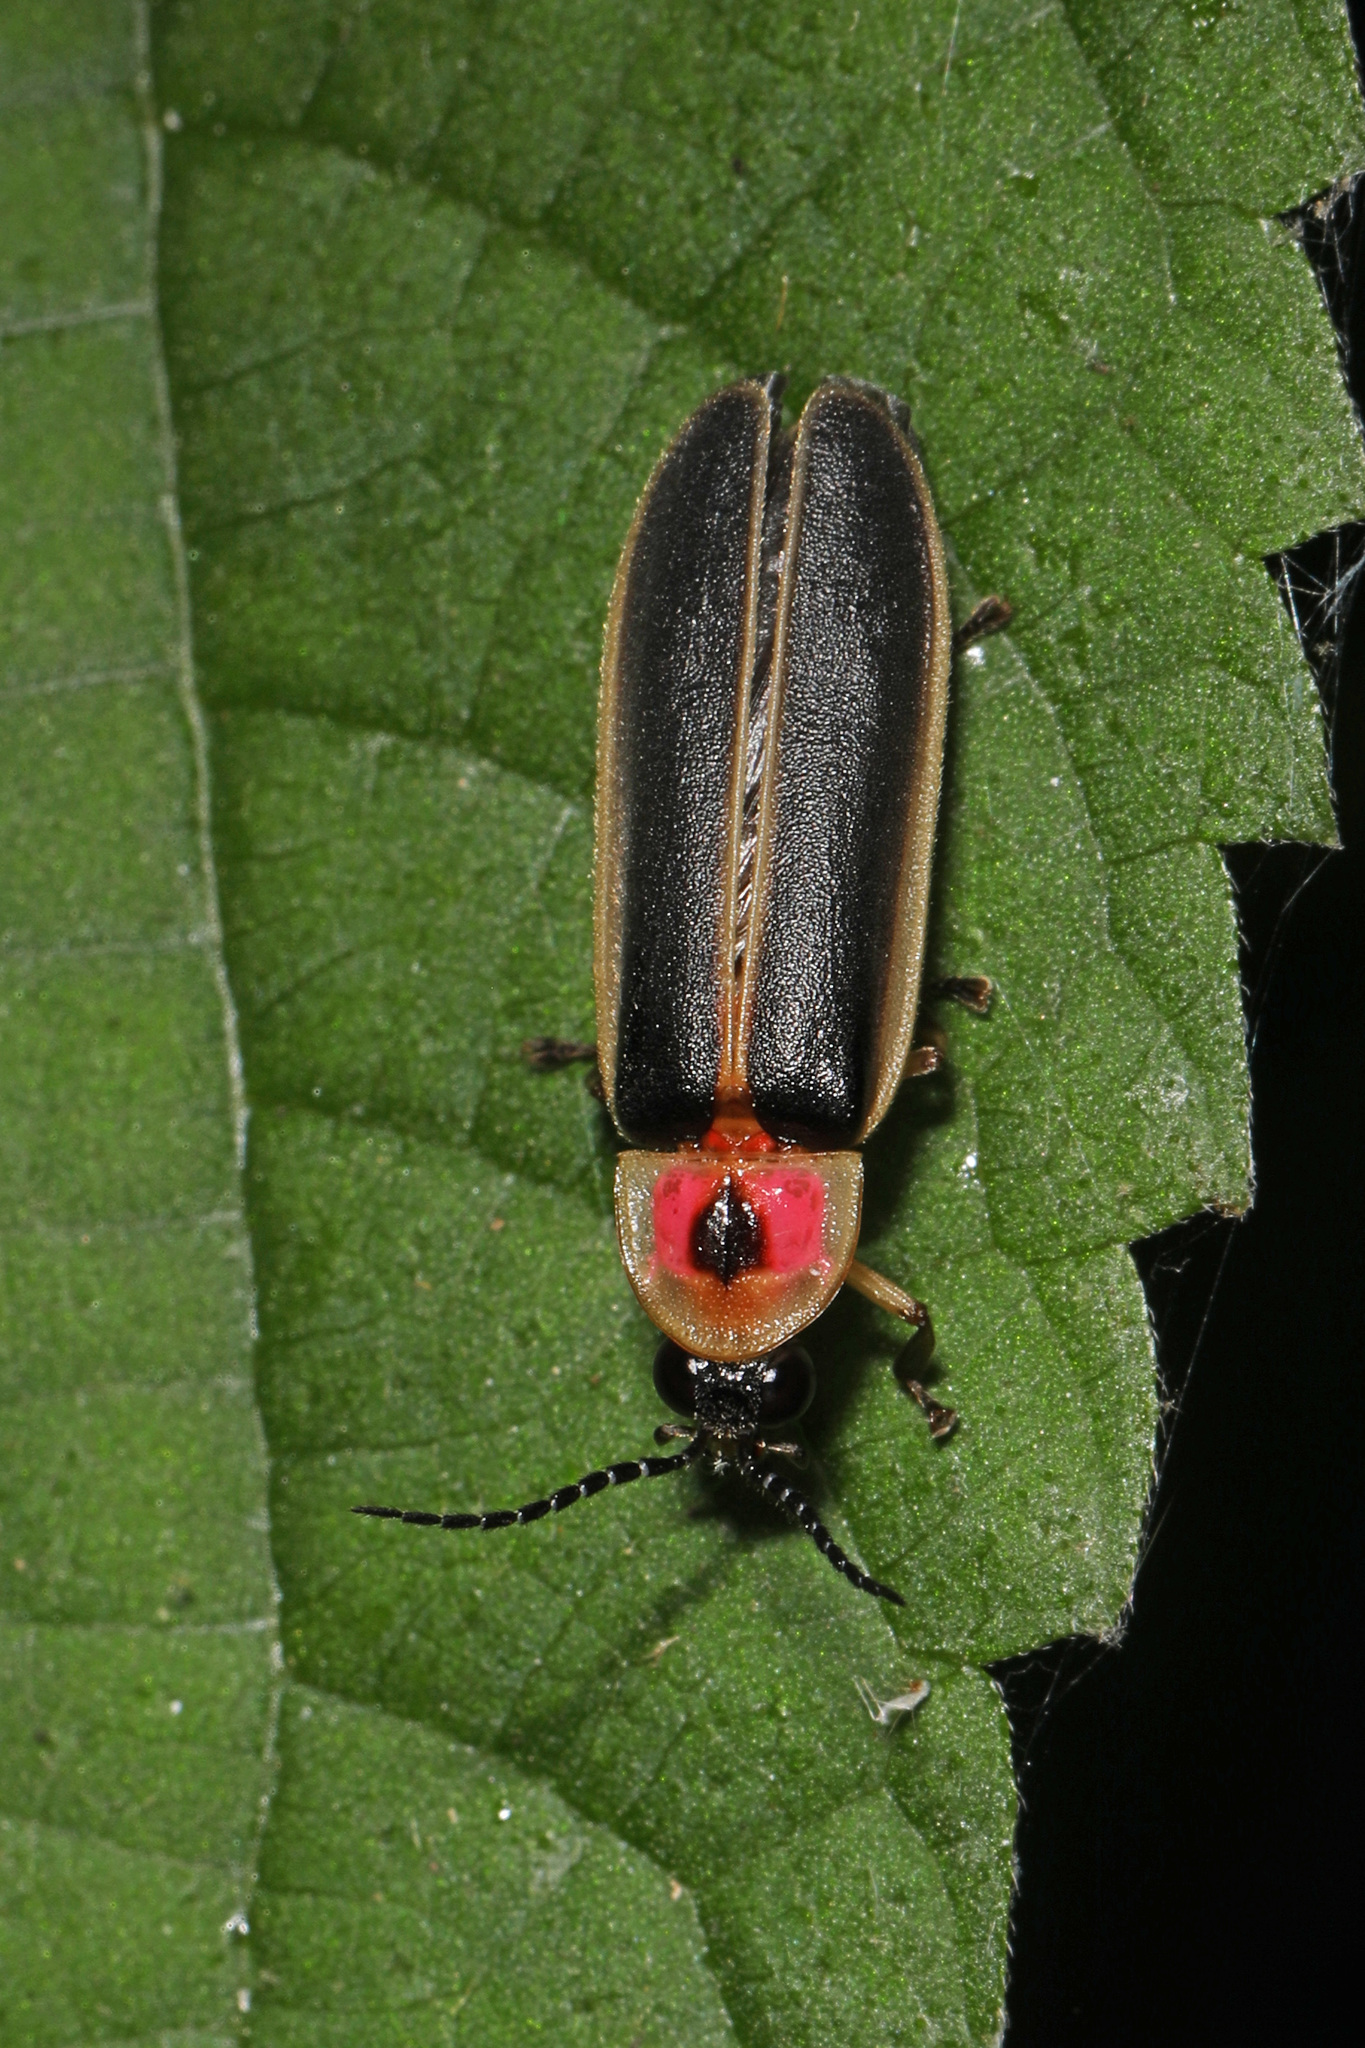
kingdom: Animalia
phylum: Arthropoda
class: Insecta
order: Coleoptera
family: Lampyridae
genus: Photinus
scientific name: Photinus pyralis
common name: Big dipper firefly
